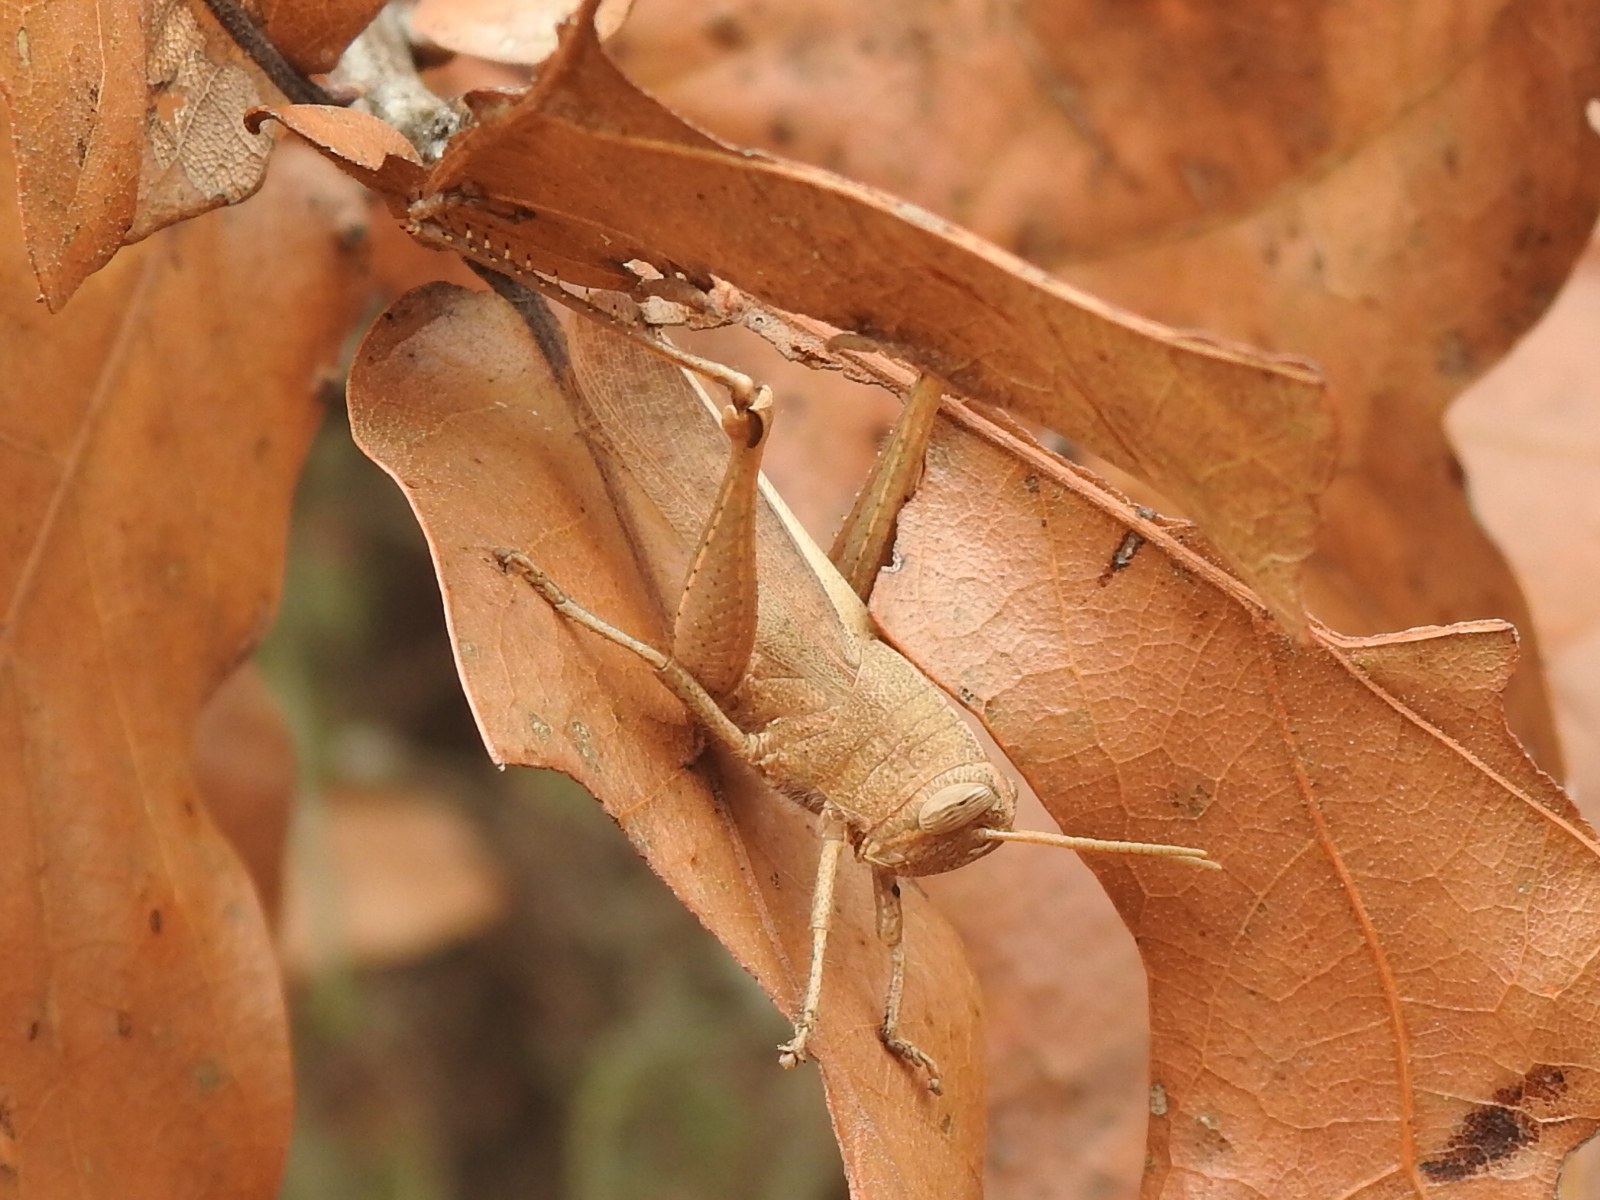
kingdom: Animalia
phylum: Arthropoda
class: Insecta
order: Orthoptera
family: Acrididae
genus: Schistocerca
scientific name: Schistocerca damnifica
